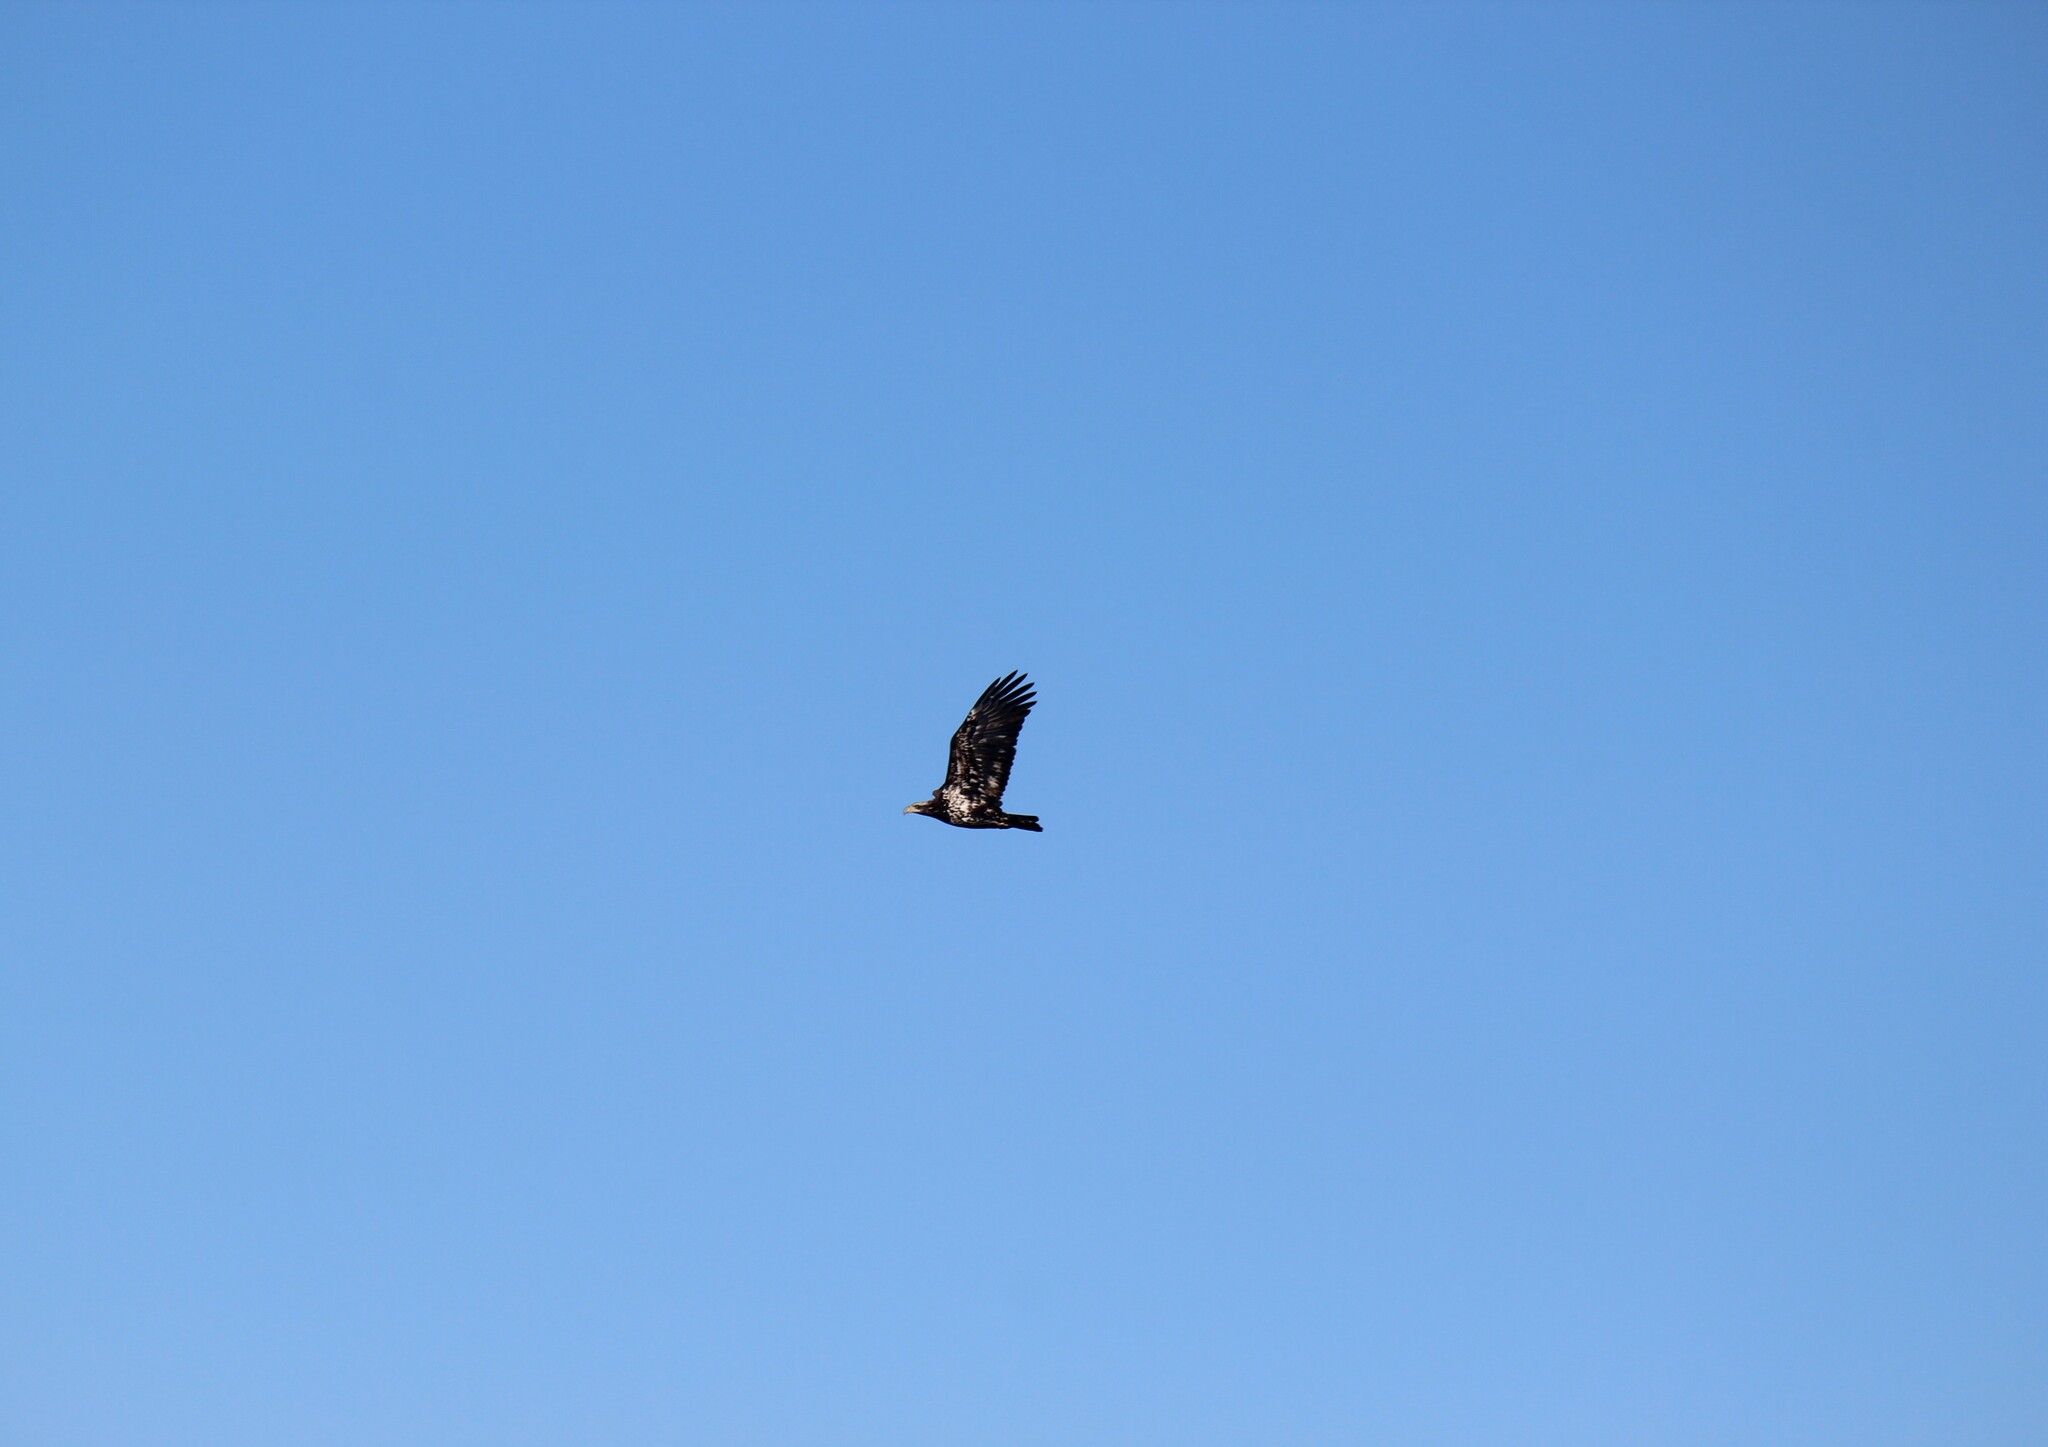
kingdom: Animalia
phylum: Chordata
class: Aves
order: Accipitriformes
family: Accipitridae
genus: Haliaeetus
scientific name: Haliaeetus leucocephalus
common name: Bald eagle
